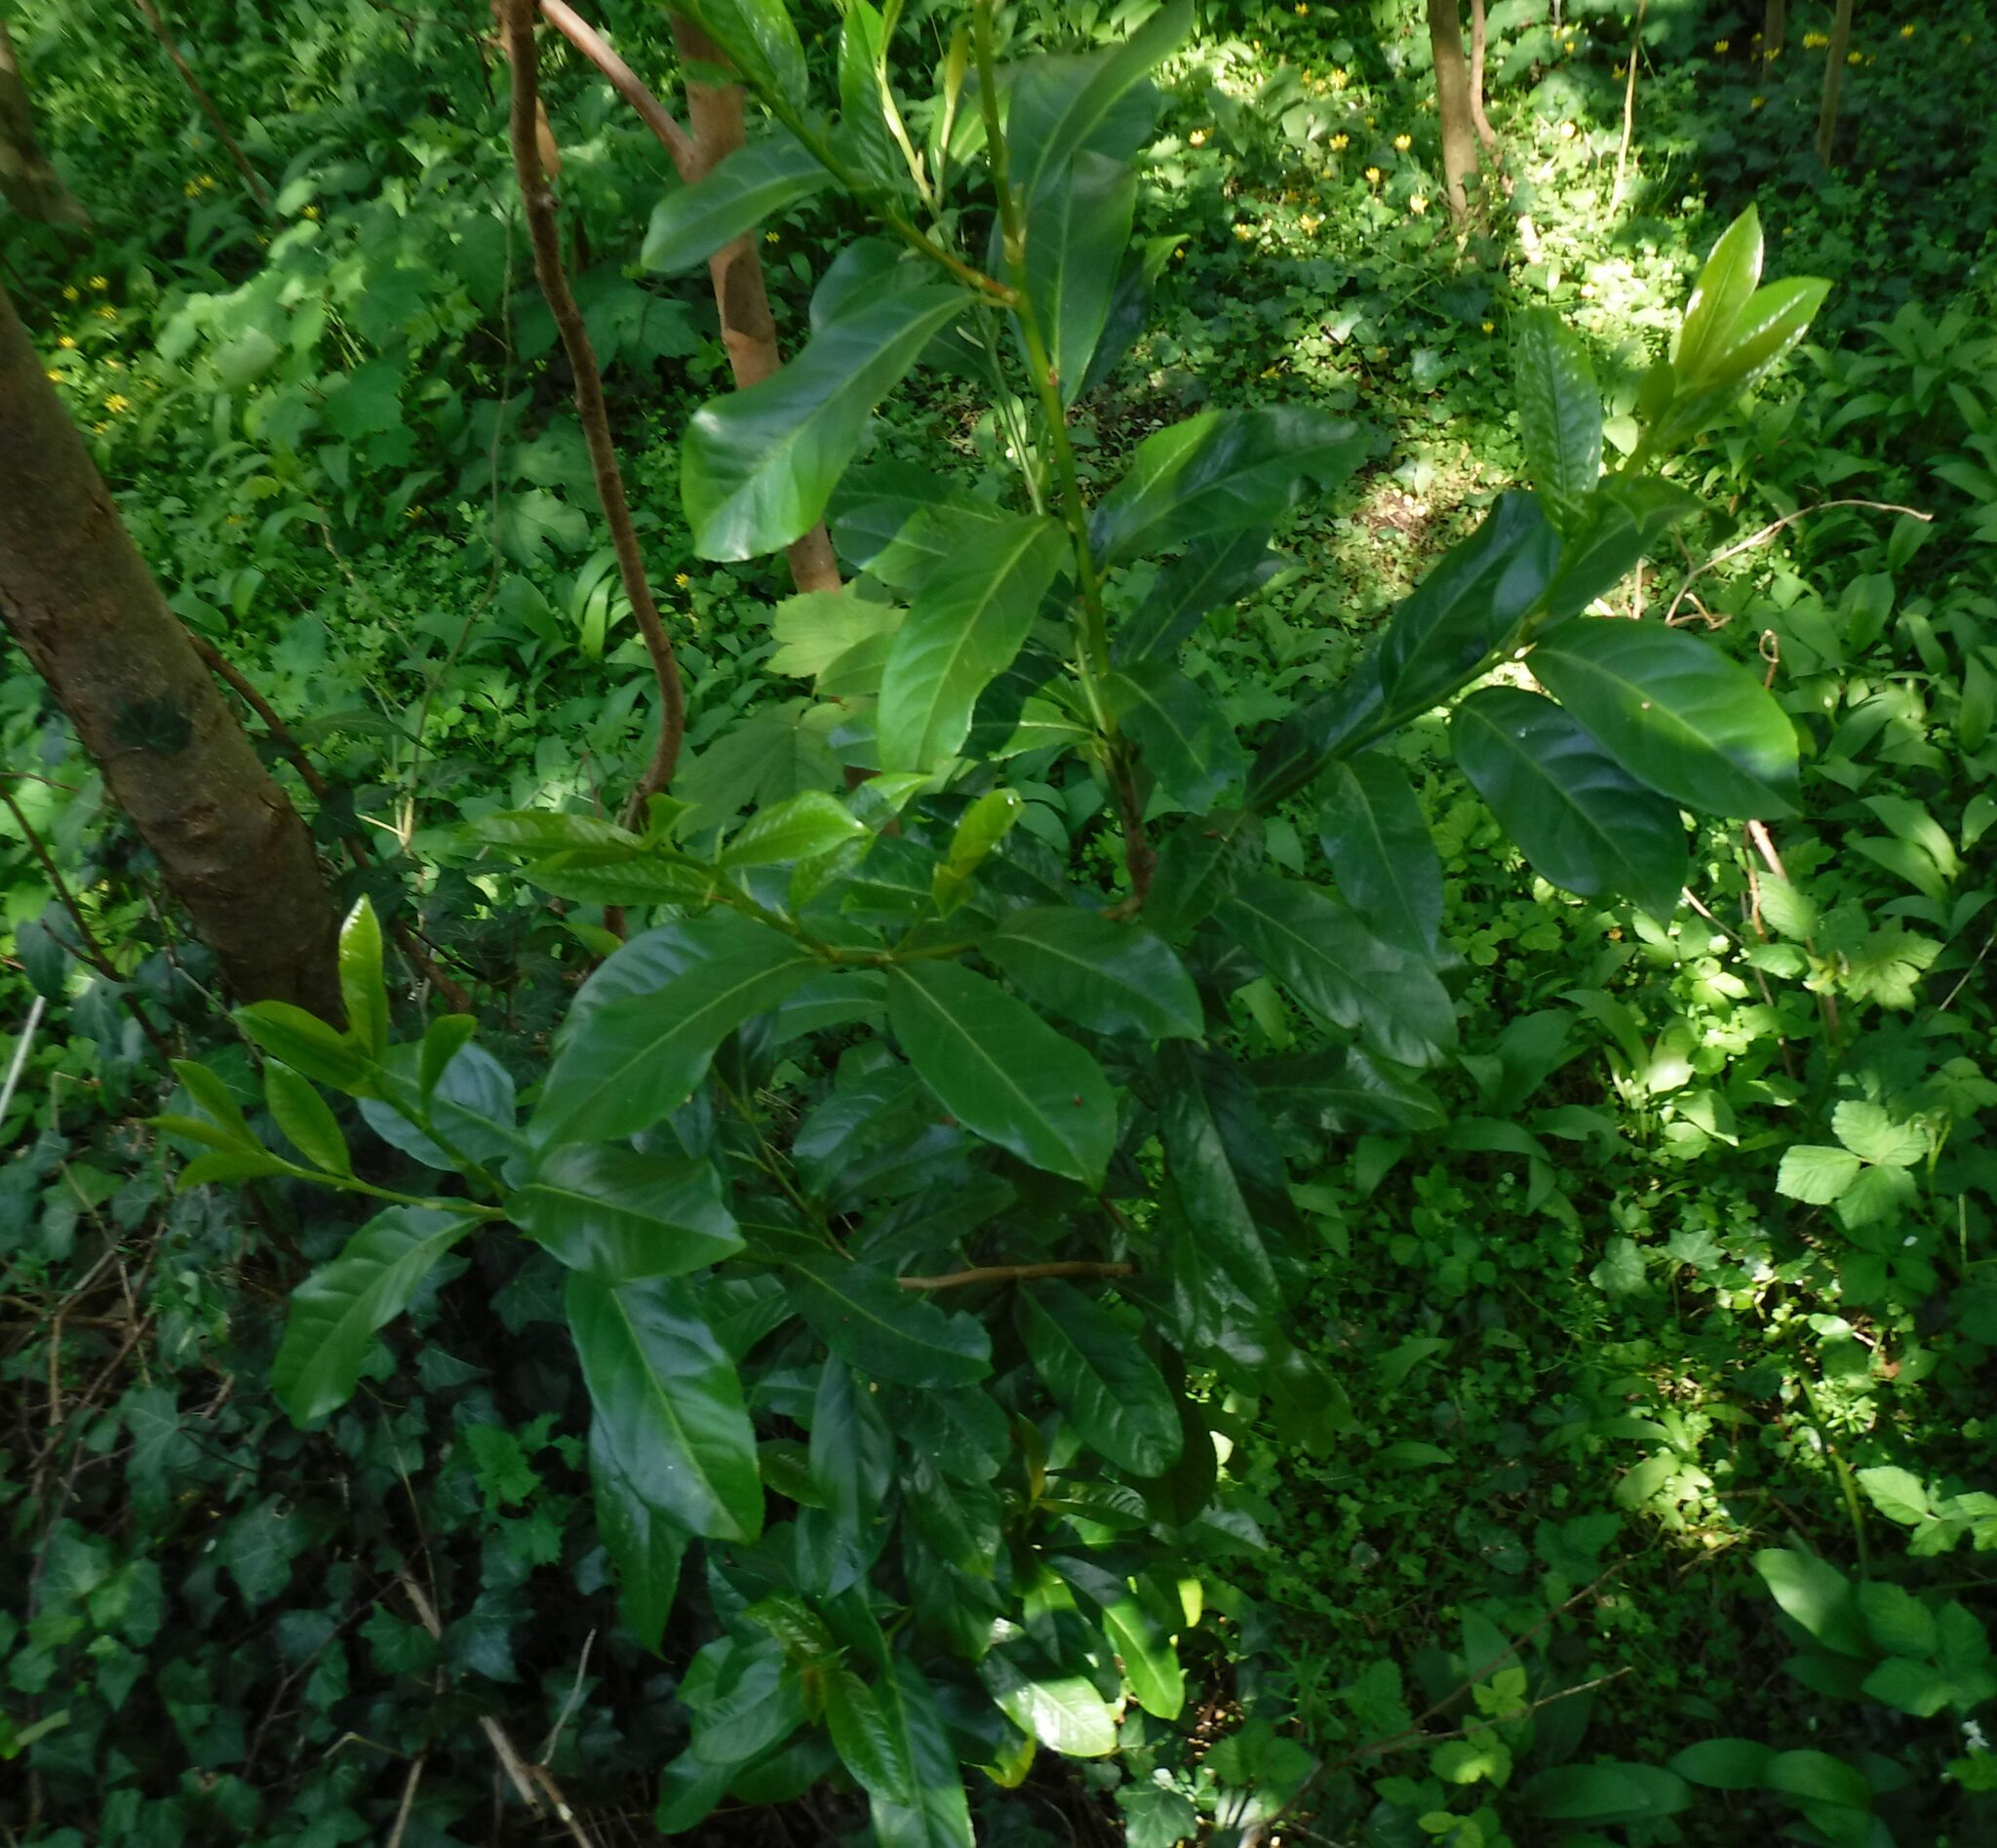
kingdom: Plantae
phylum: Tracheophyta
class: Magnoliopsida
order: Rosales
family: Rosaceae
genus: Prunus
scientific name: Prunus laurocerasus
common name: Cherry laurel
